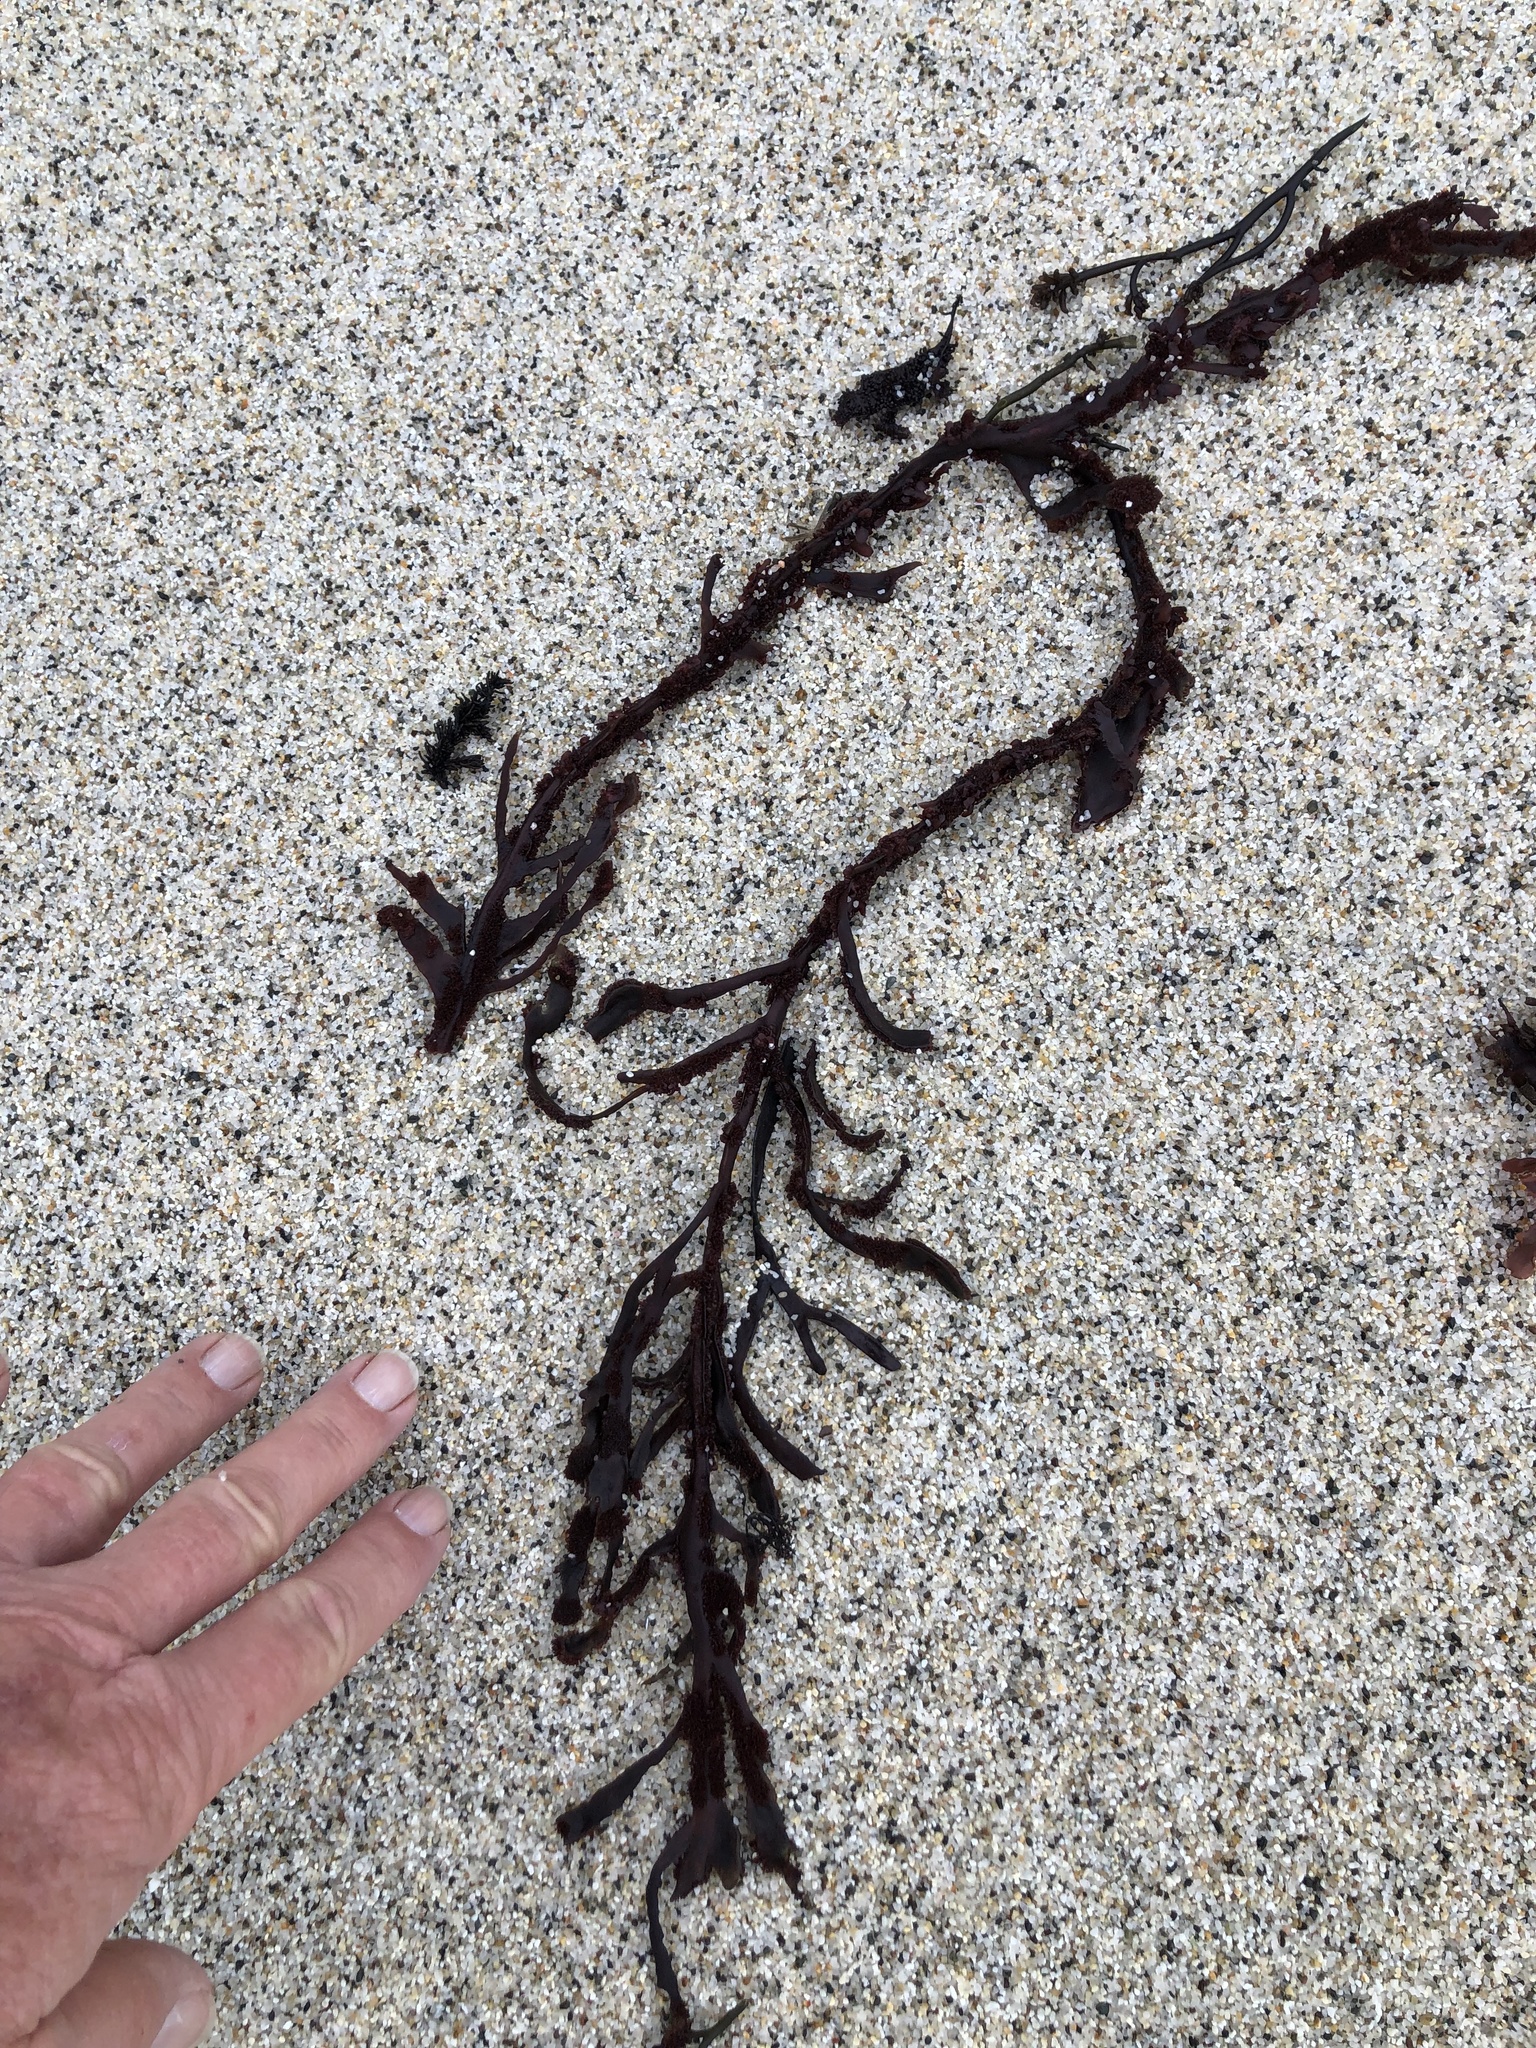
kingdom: Plantae
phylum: Rhodophyta
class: Florideophyceae
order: Gigartinales
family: Kallymeniaceae
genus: Erythrophyllum
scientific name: Erythrophyllum delesserioides
